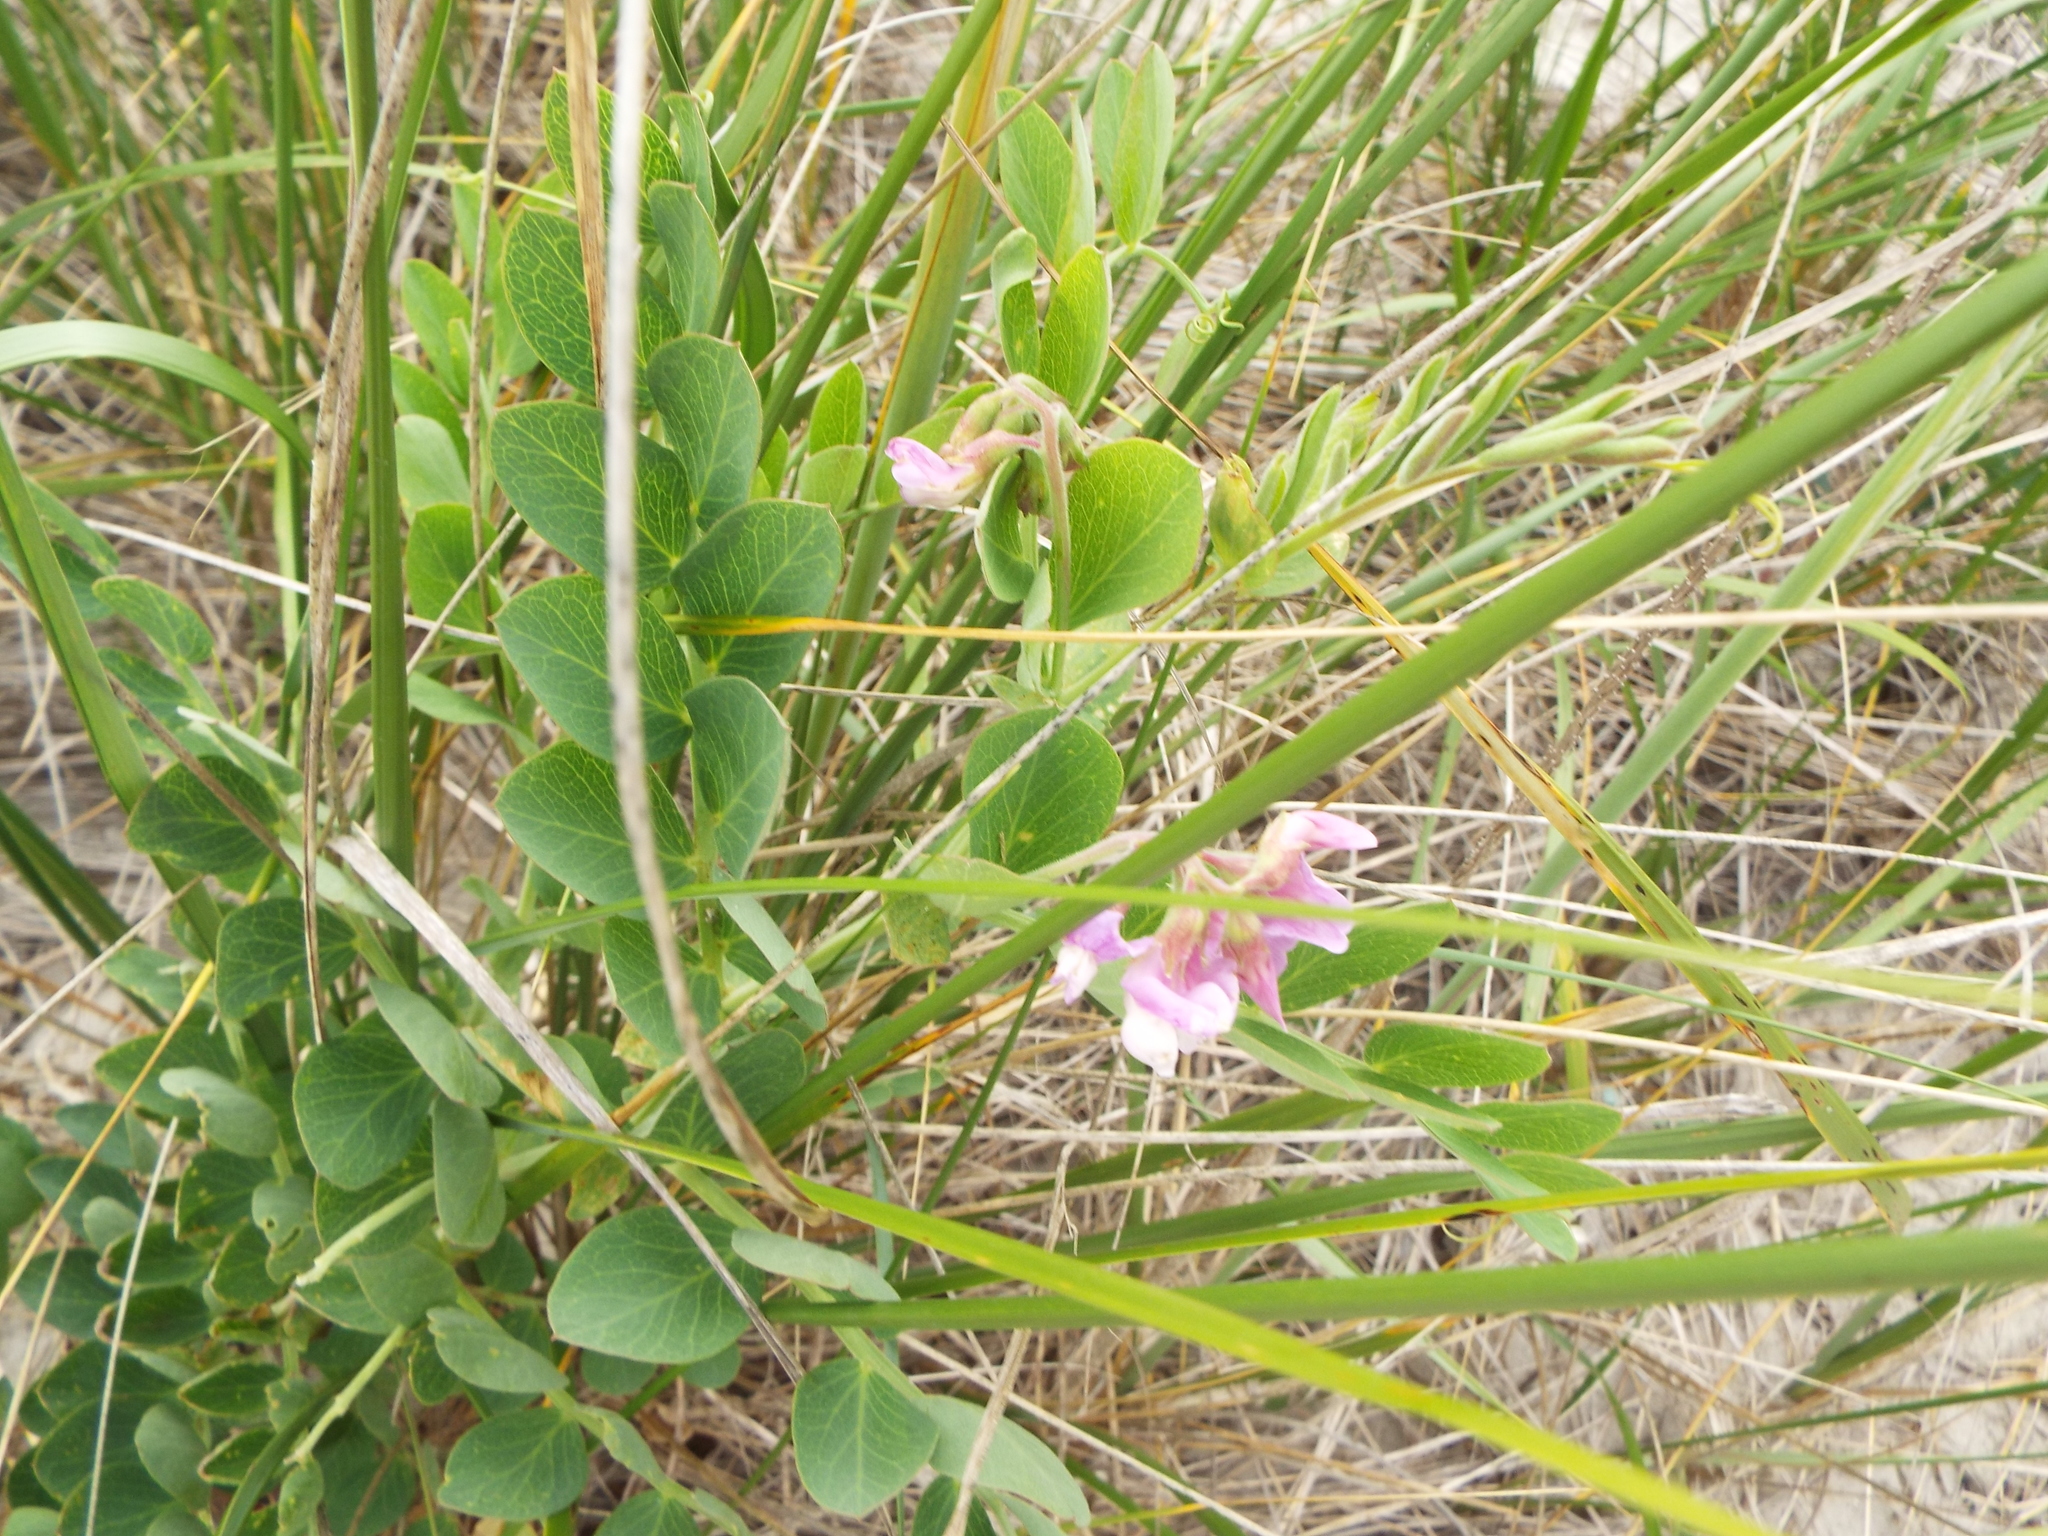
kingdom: Plantae
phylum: Tracheophyta
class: Magnoliopsida
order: Fabales
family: Fabaceae
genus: Lathyrus
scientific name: Lathyrus japonicus
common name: Sea pea
